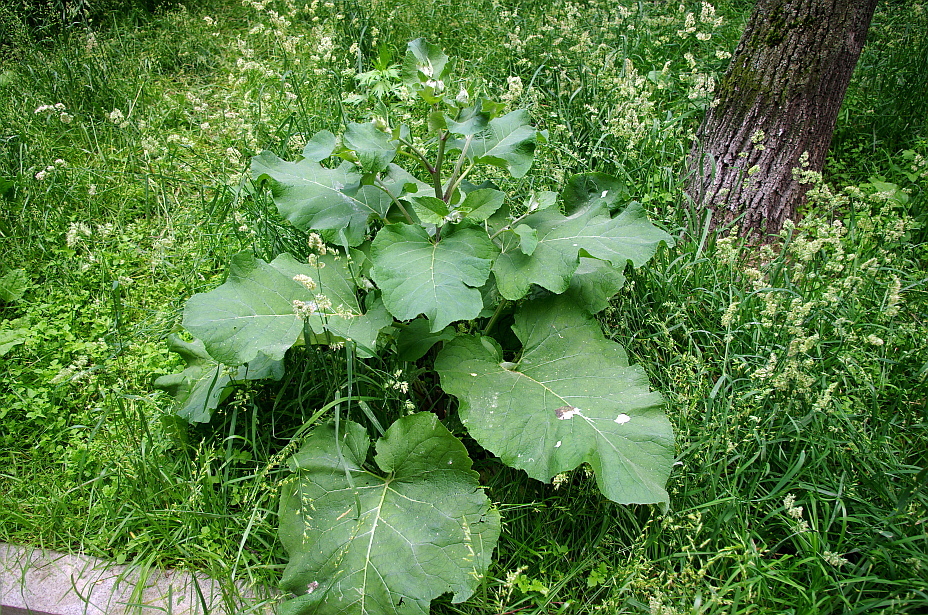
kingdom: Plantae
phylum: Tracheophyta
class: Magnoliopsida
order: Asterales
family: Asteraceae
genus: Arctium
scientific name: Arctium tomentosum
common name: Woolly burdock
